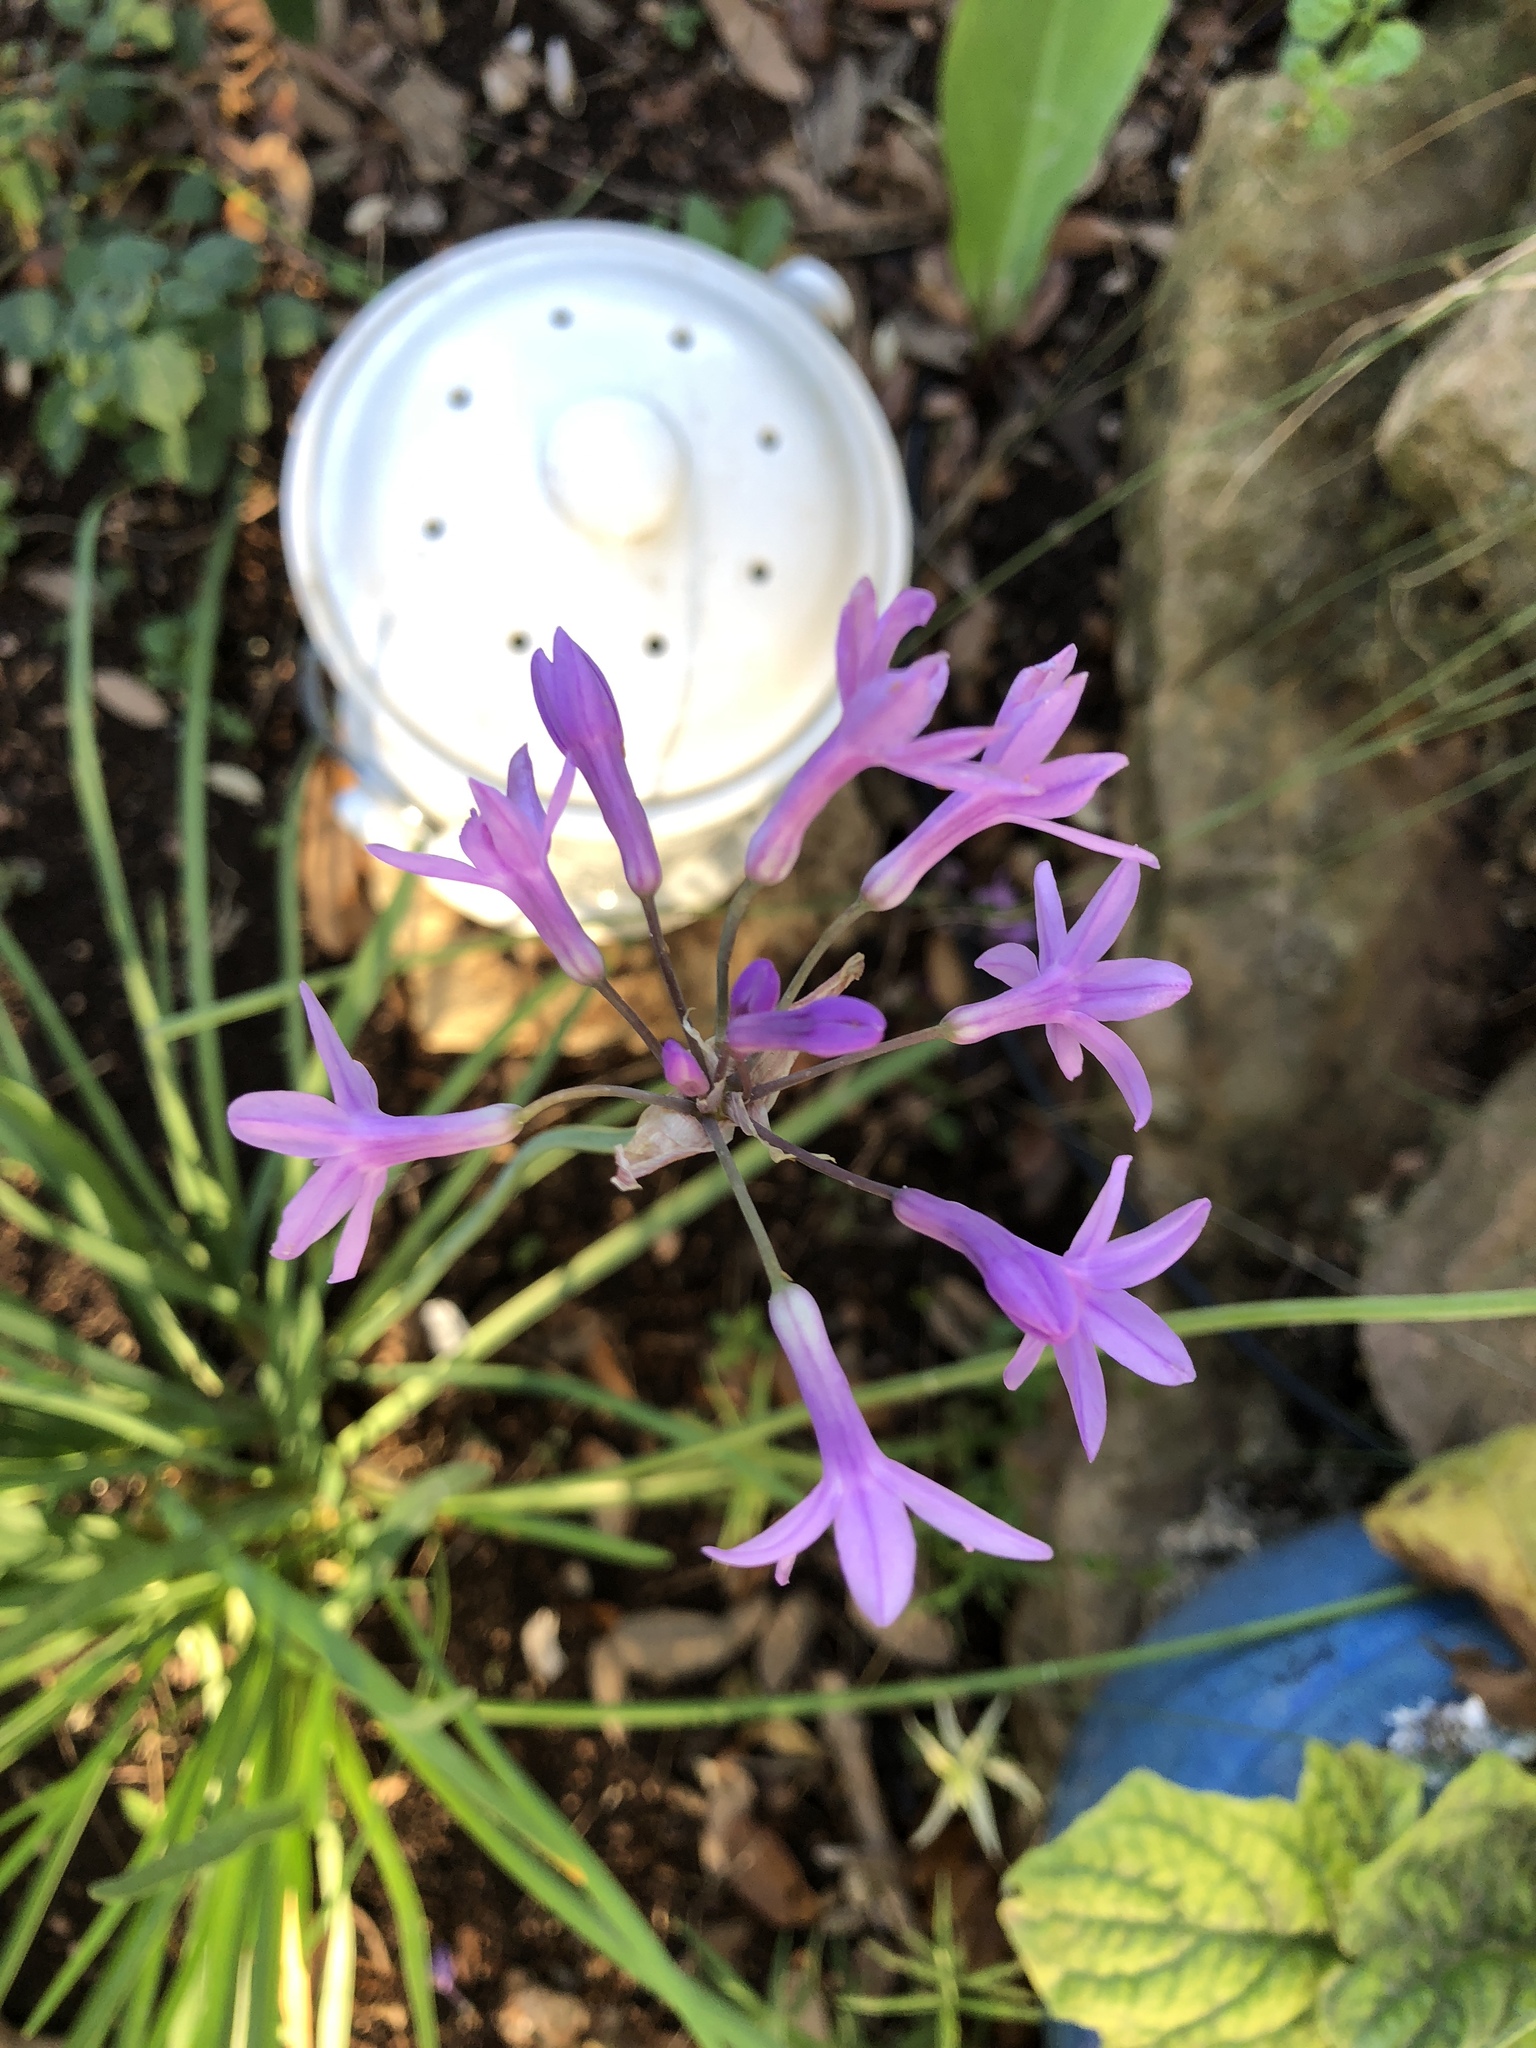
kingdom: Plantae
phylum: Tracheophyta
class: Liliopsida
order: Asparagales
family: Amaryllidaceae
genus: Tulbaghia
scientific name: Tulbaghia violacea
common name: Society garlic
